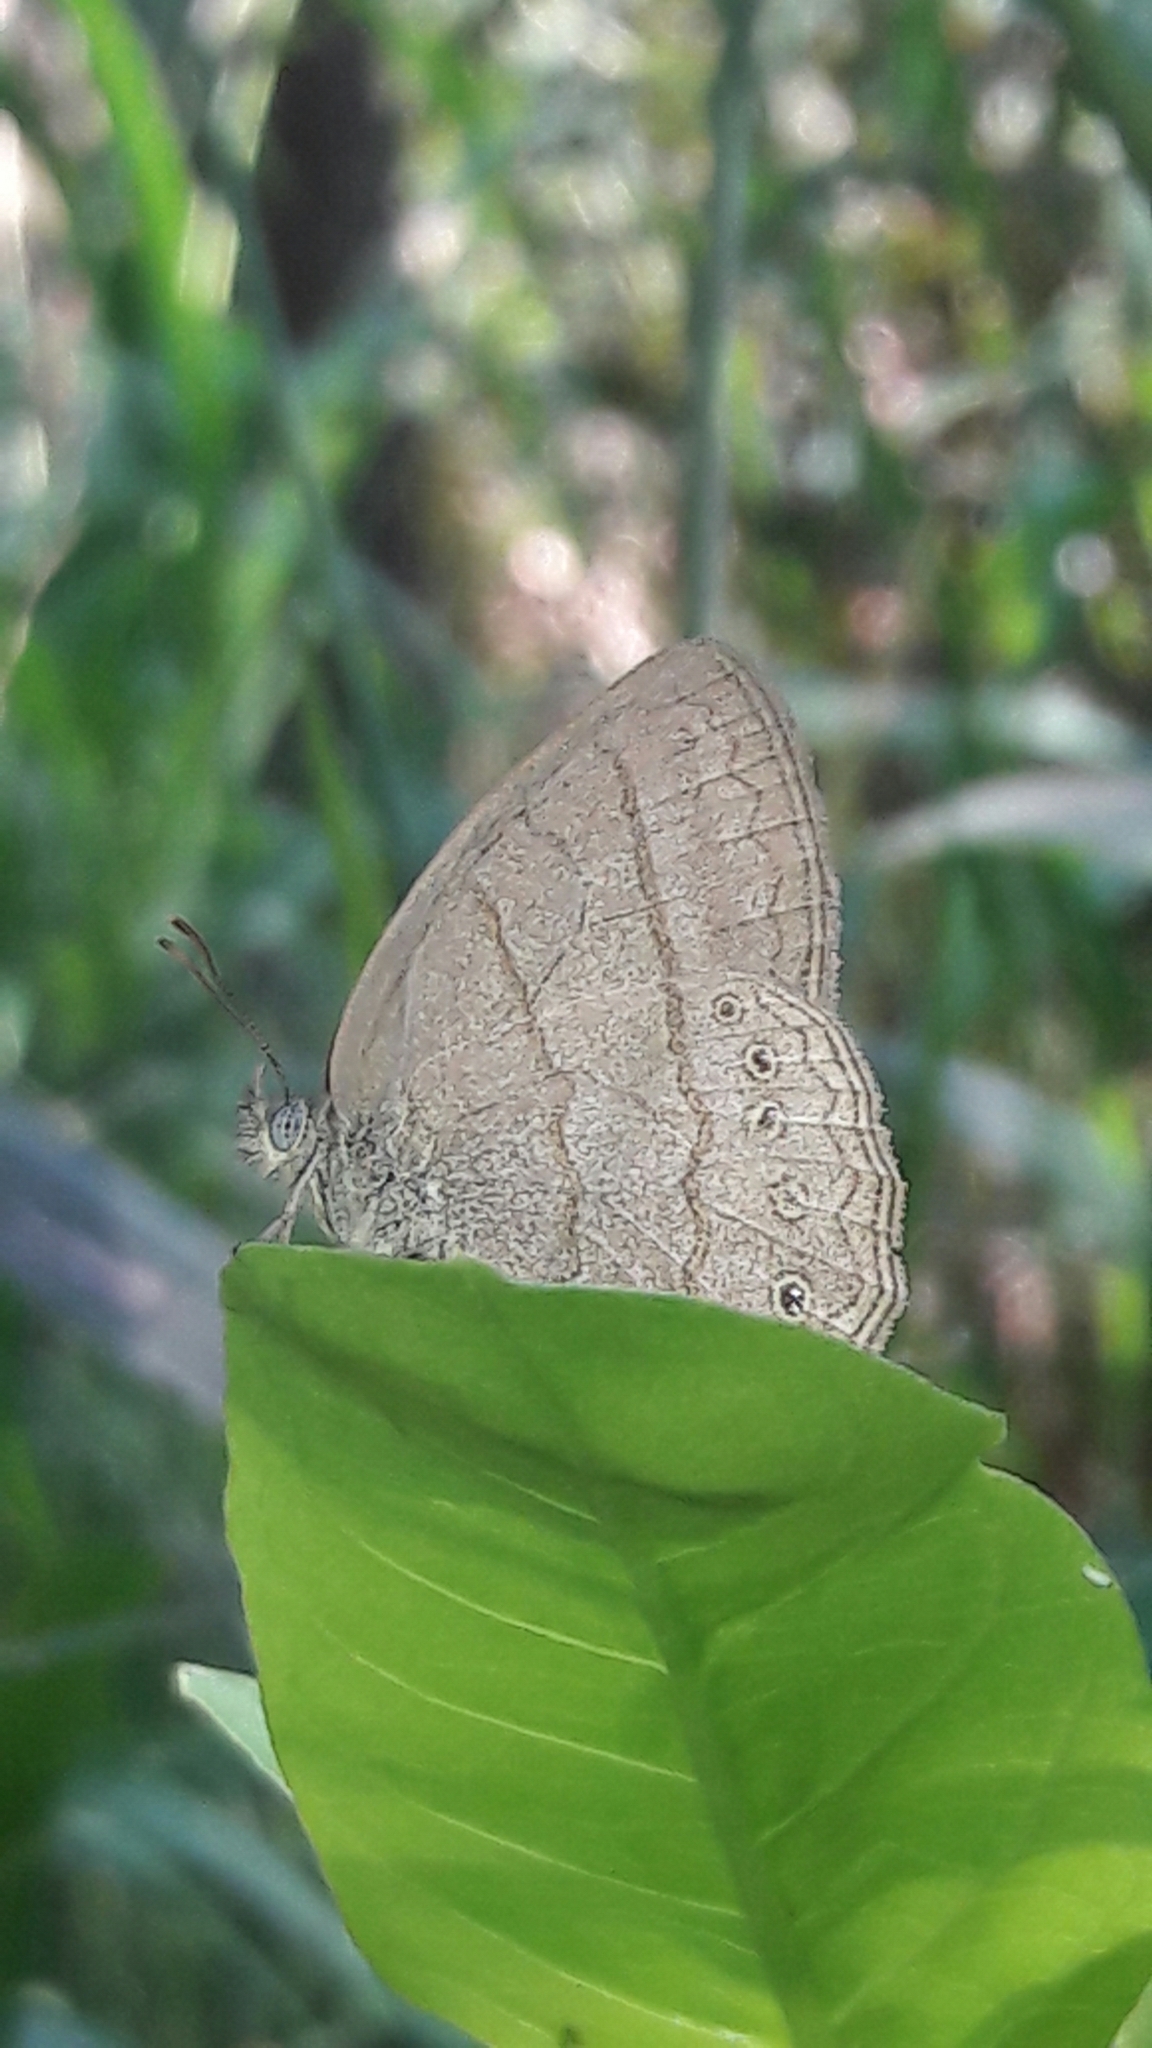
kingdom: Animalia
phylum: Arthropoda
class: Insecta
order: Lepidoptera
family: Nymphalidae
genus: Paryphthimoides
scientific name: Paryphthimoides poltys
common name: Poltys satyr
